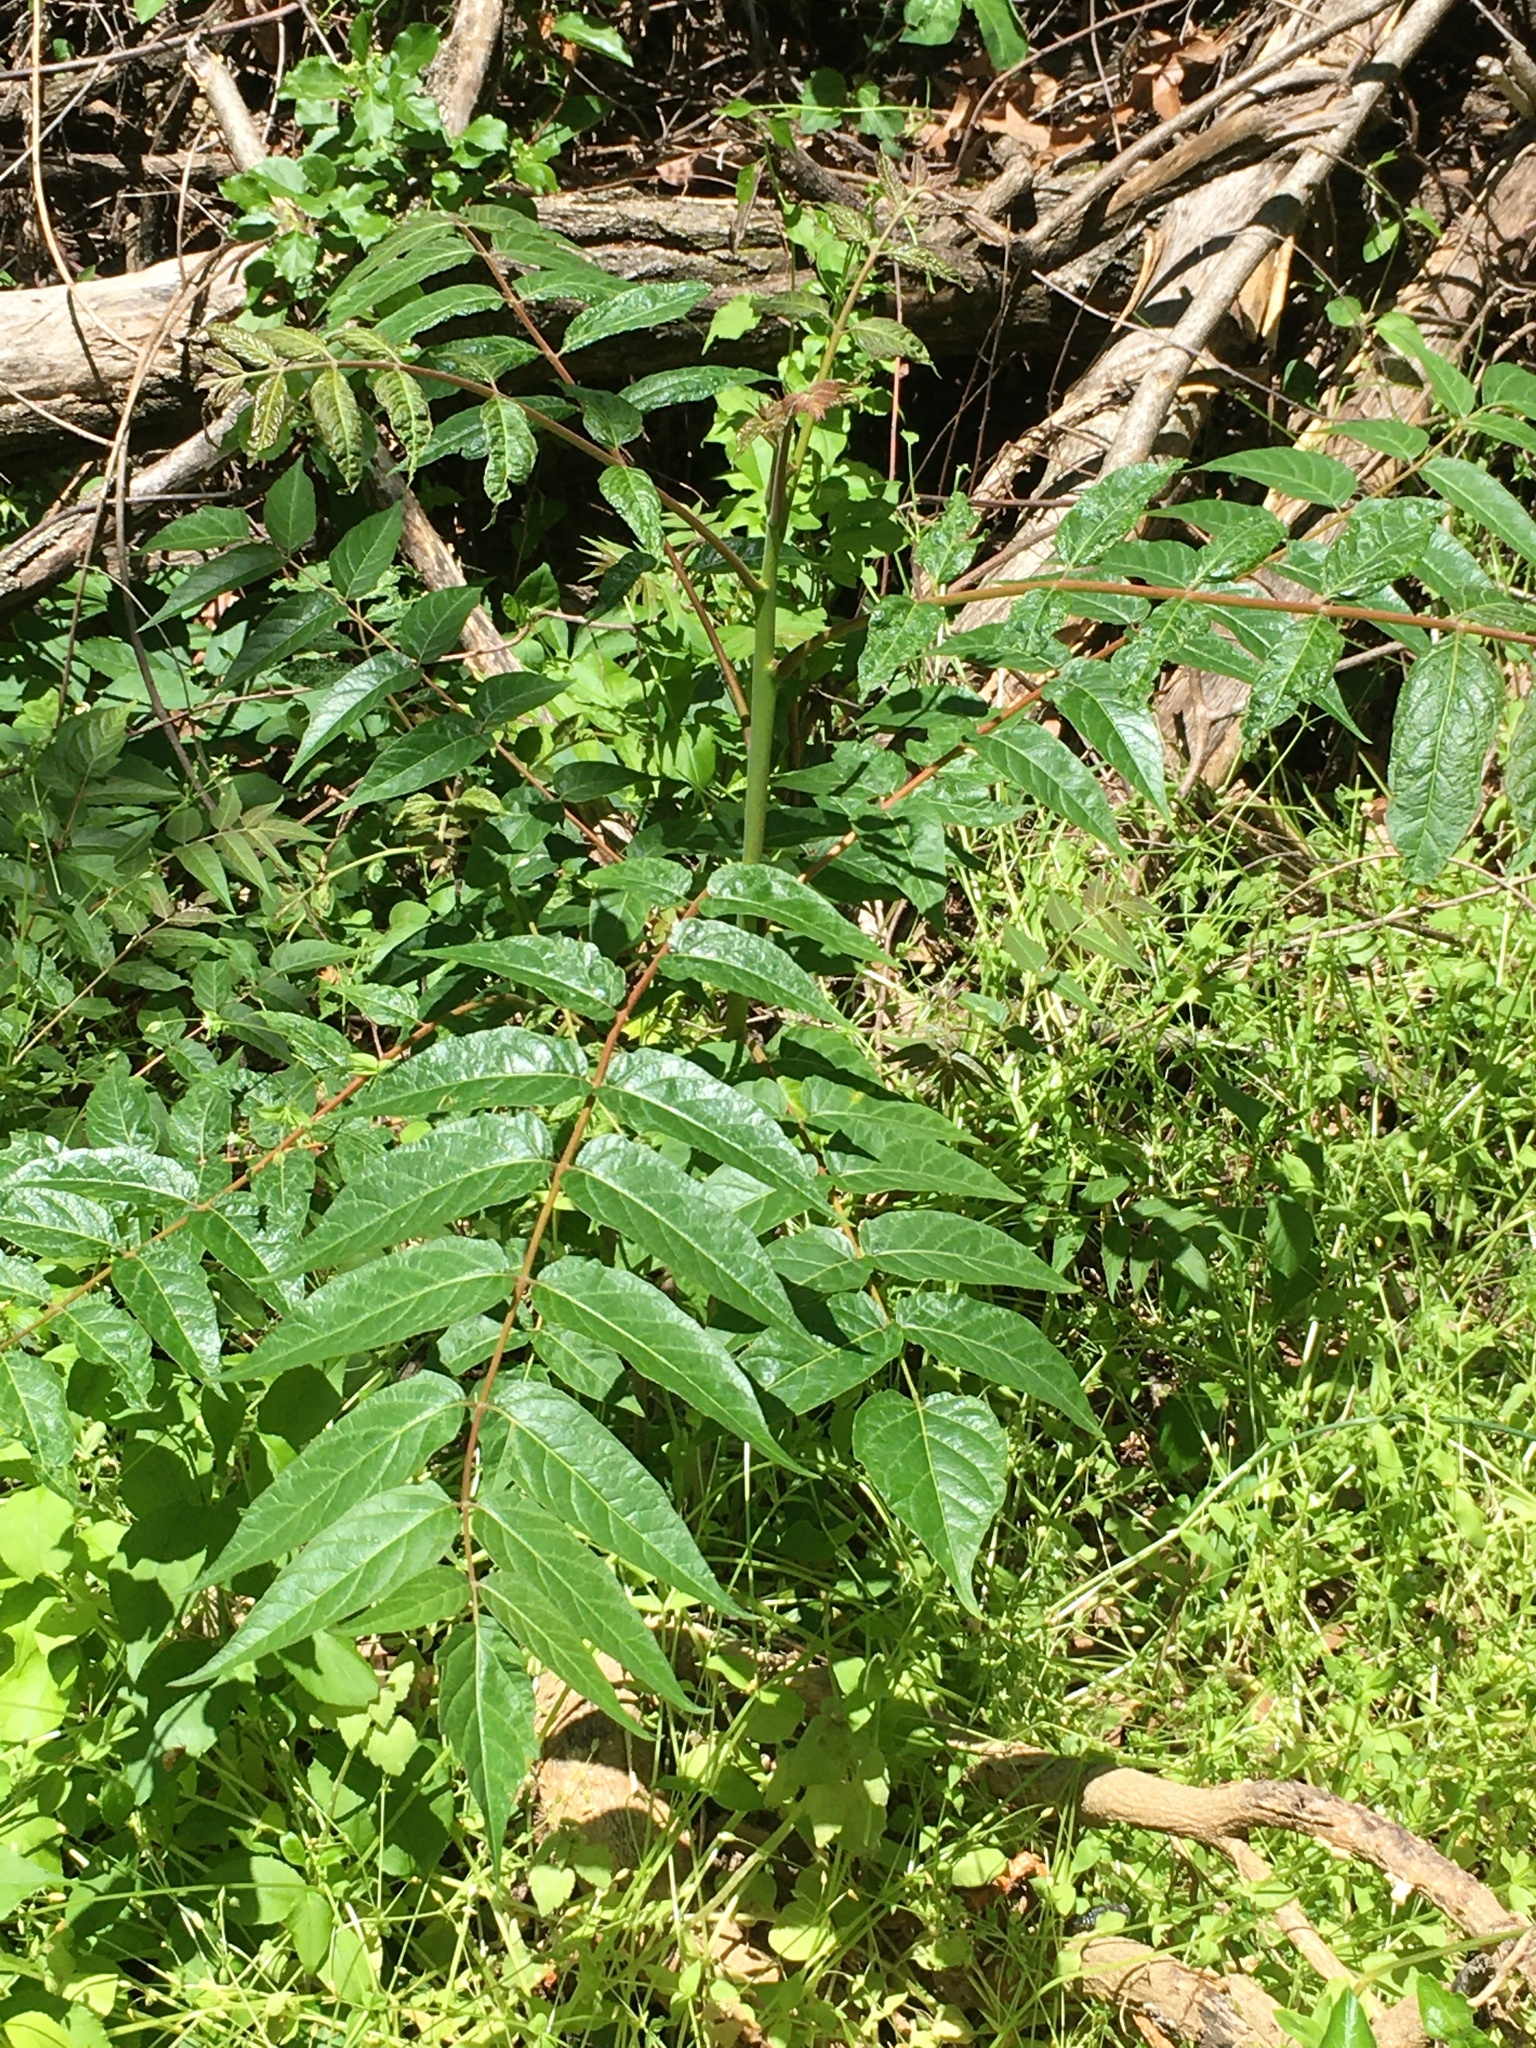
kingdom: Plantae
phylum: Tracheophyta
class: Magnoliopsida
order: Sapindales
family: Simaroubaceae
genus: Ailanthus
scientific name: Ailanthus altissima
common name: Tree-of-heaven
